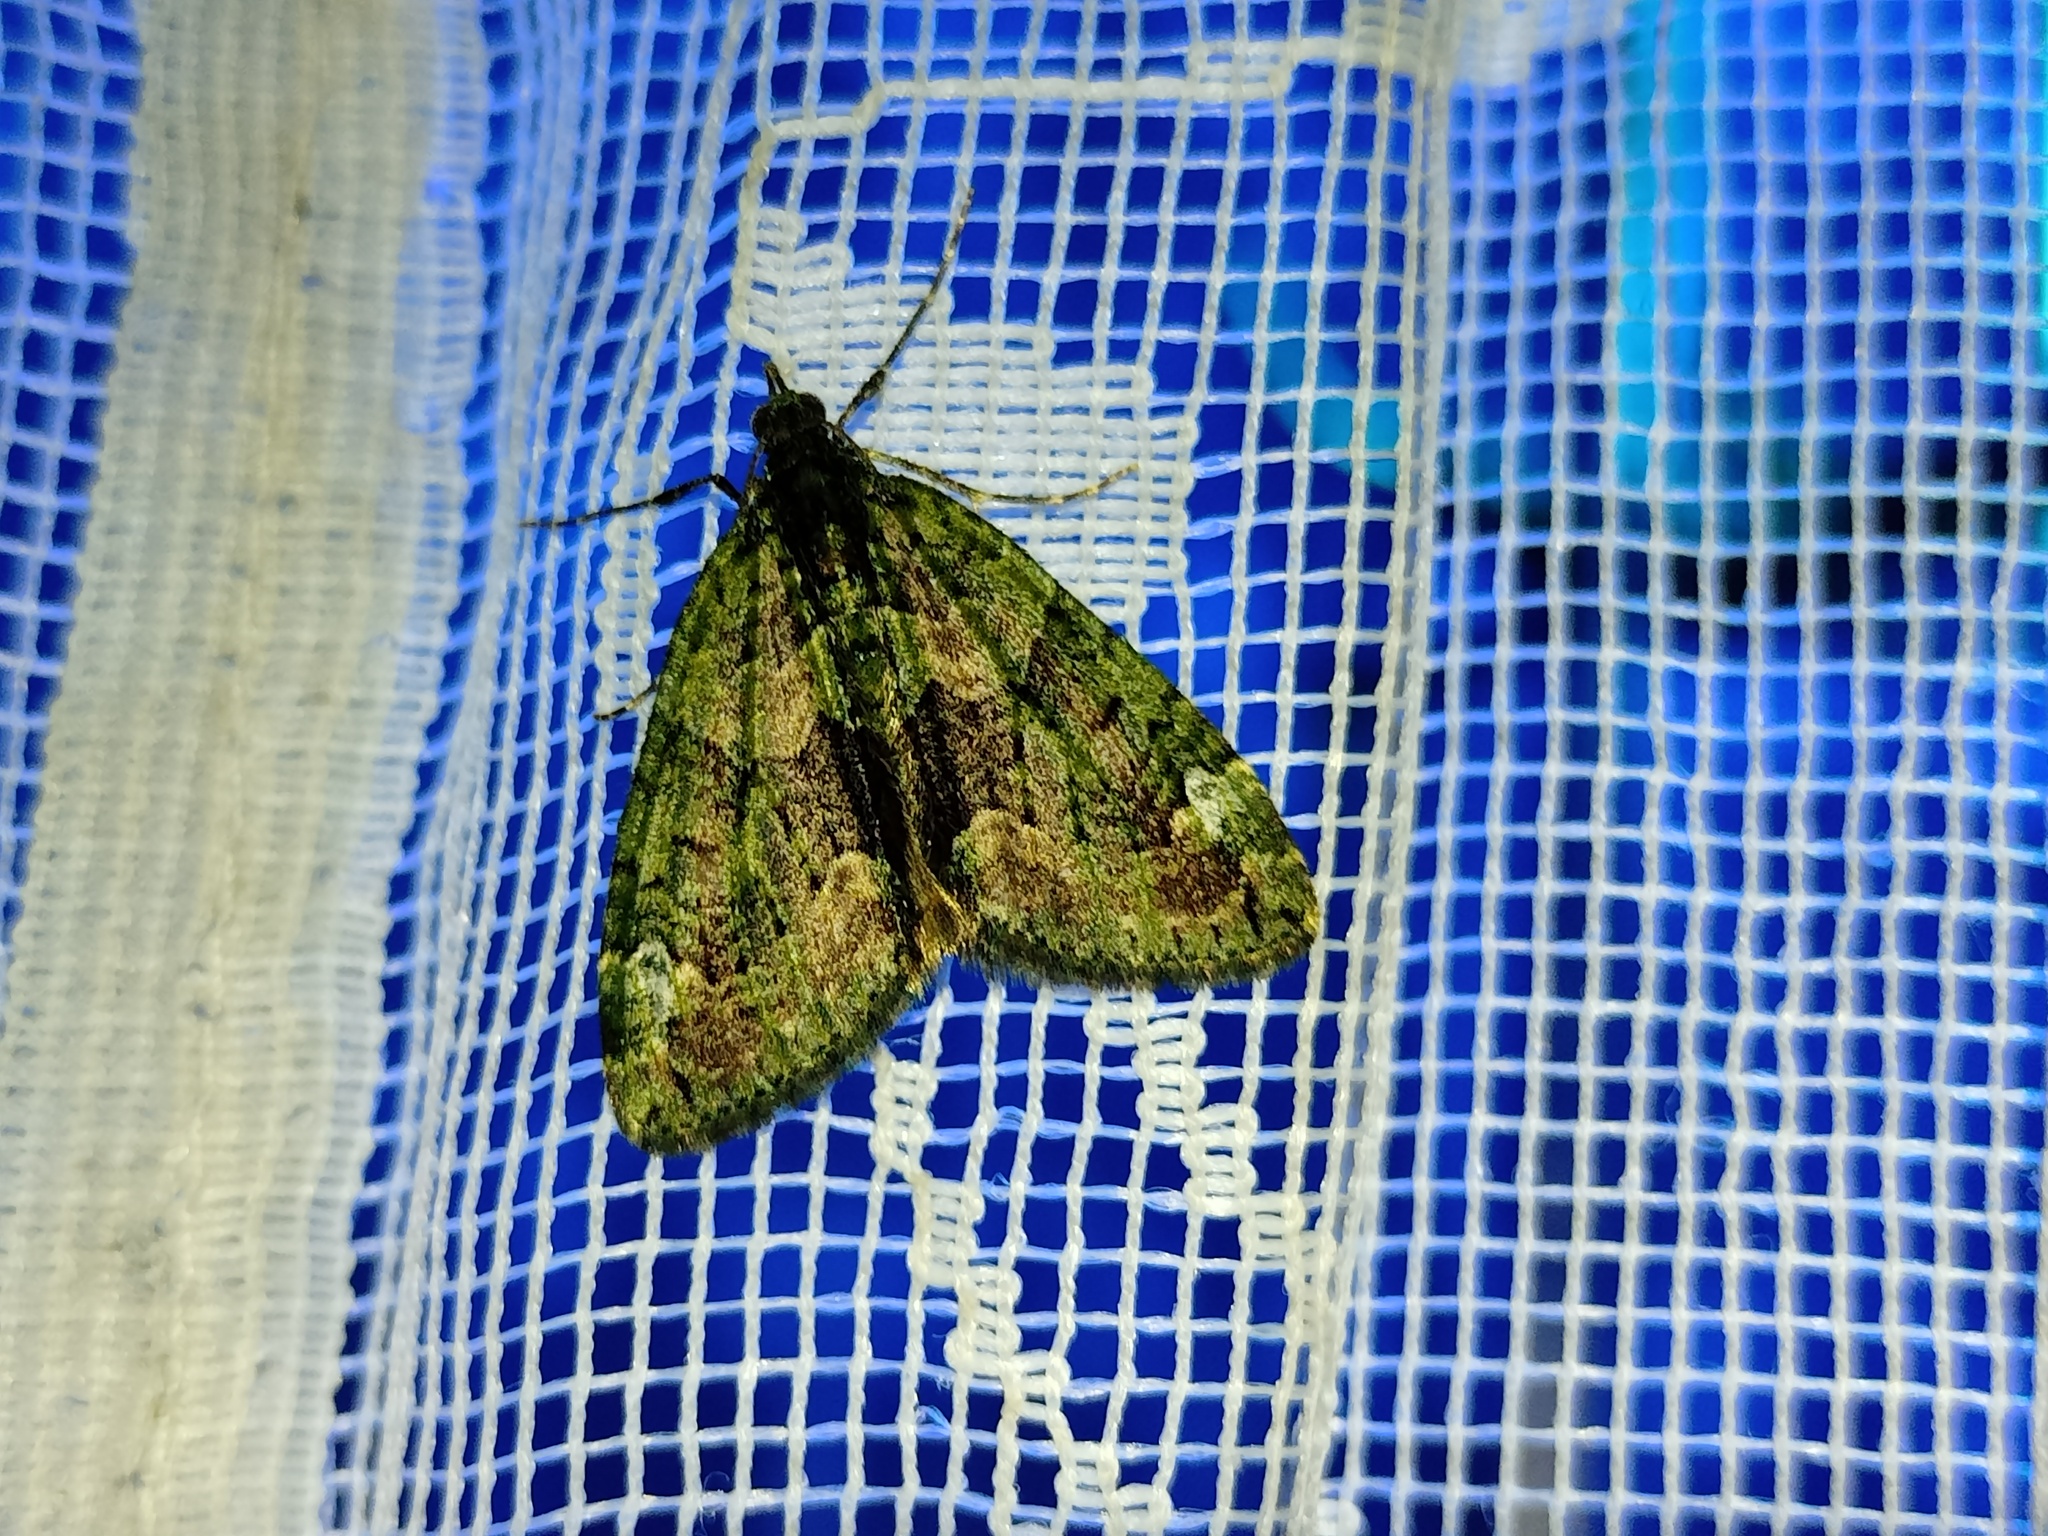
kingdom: Animalia
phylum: Arthropoda
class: Insecta
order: Lepidoptera
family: Geometridae
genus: Chloroclysta
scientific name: Chloroclysta siterata
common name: Red-green carpet
